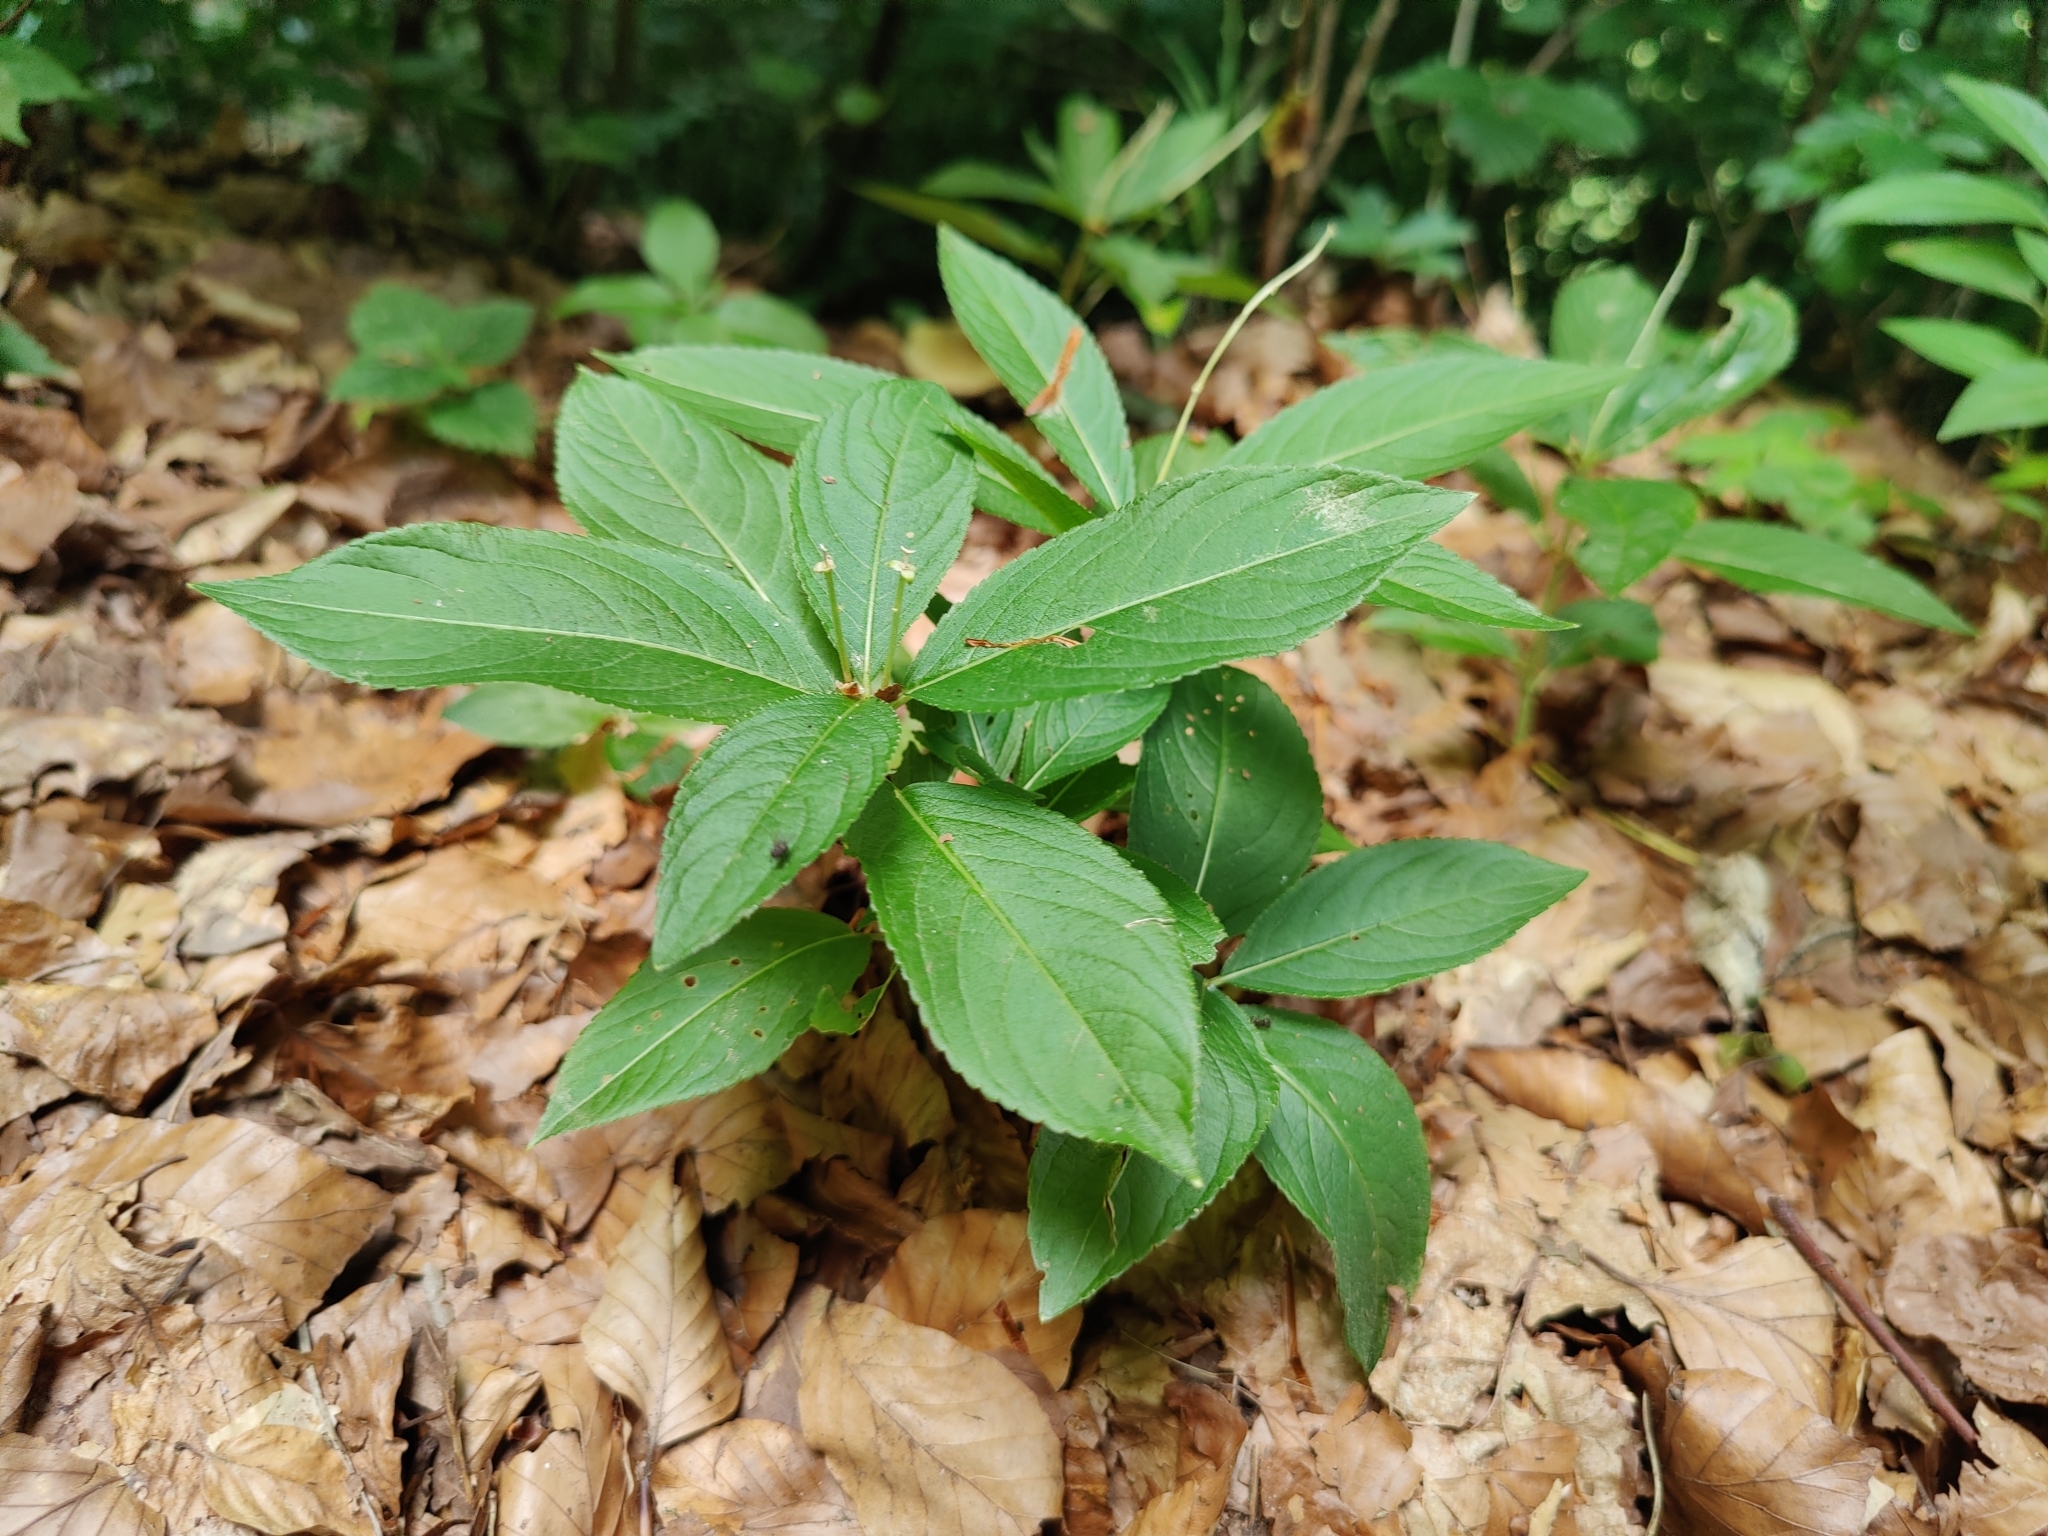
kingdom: Plantae
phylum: Tracheophyta
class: Magnoliopsida
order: Malpighiales
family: Euphorbiaceae
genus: Mercurialis
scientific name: Mercurialis perennis
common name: Dog mercury
